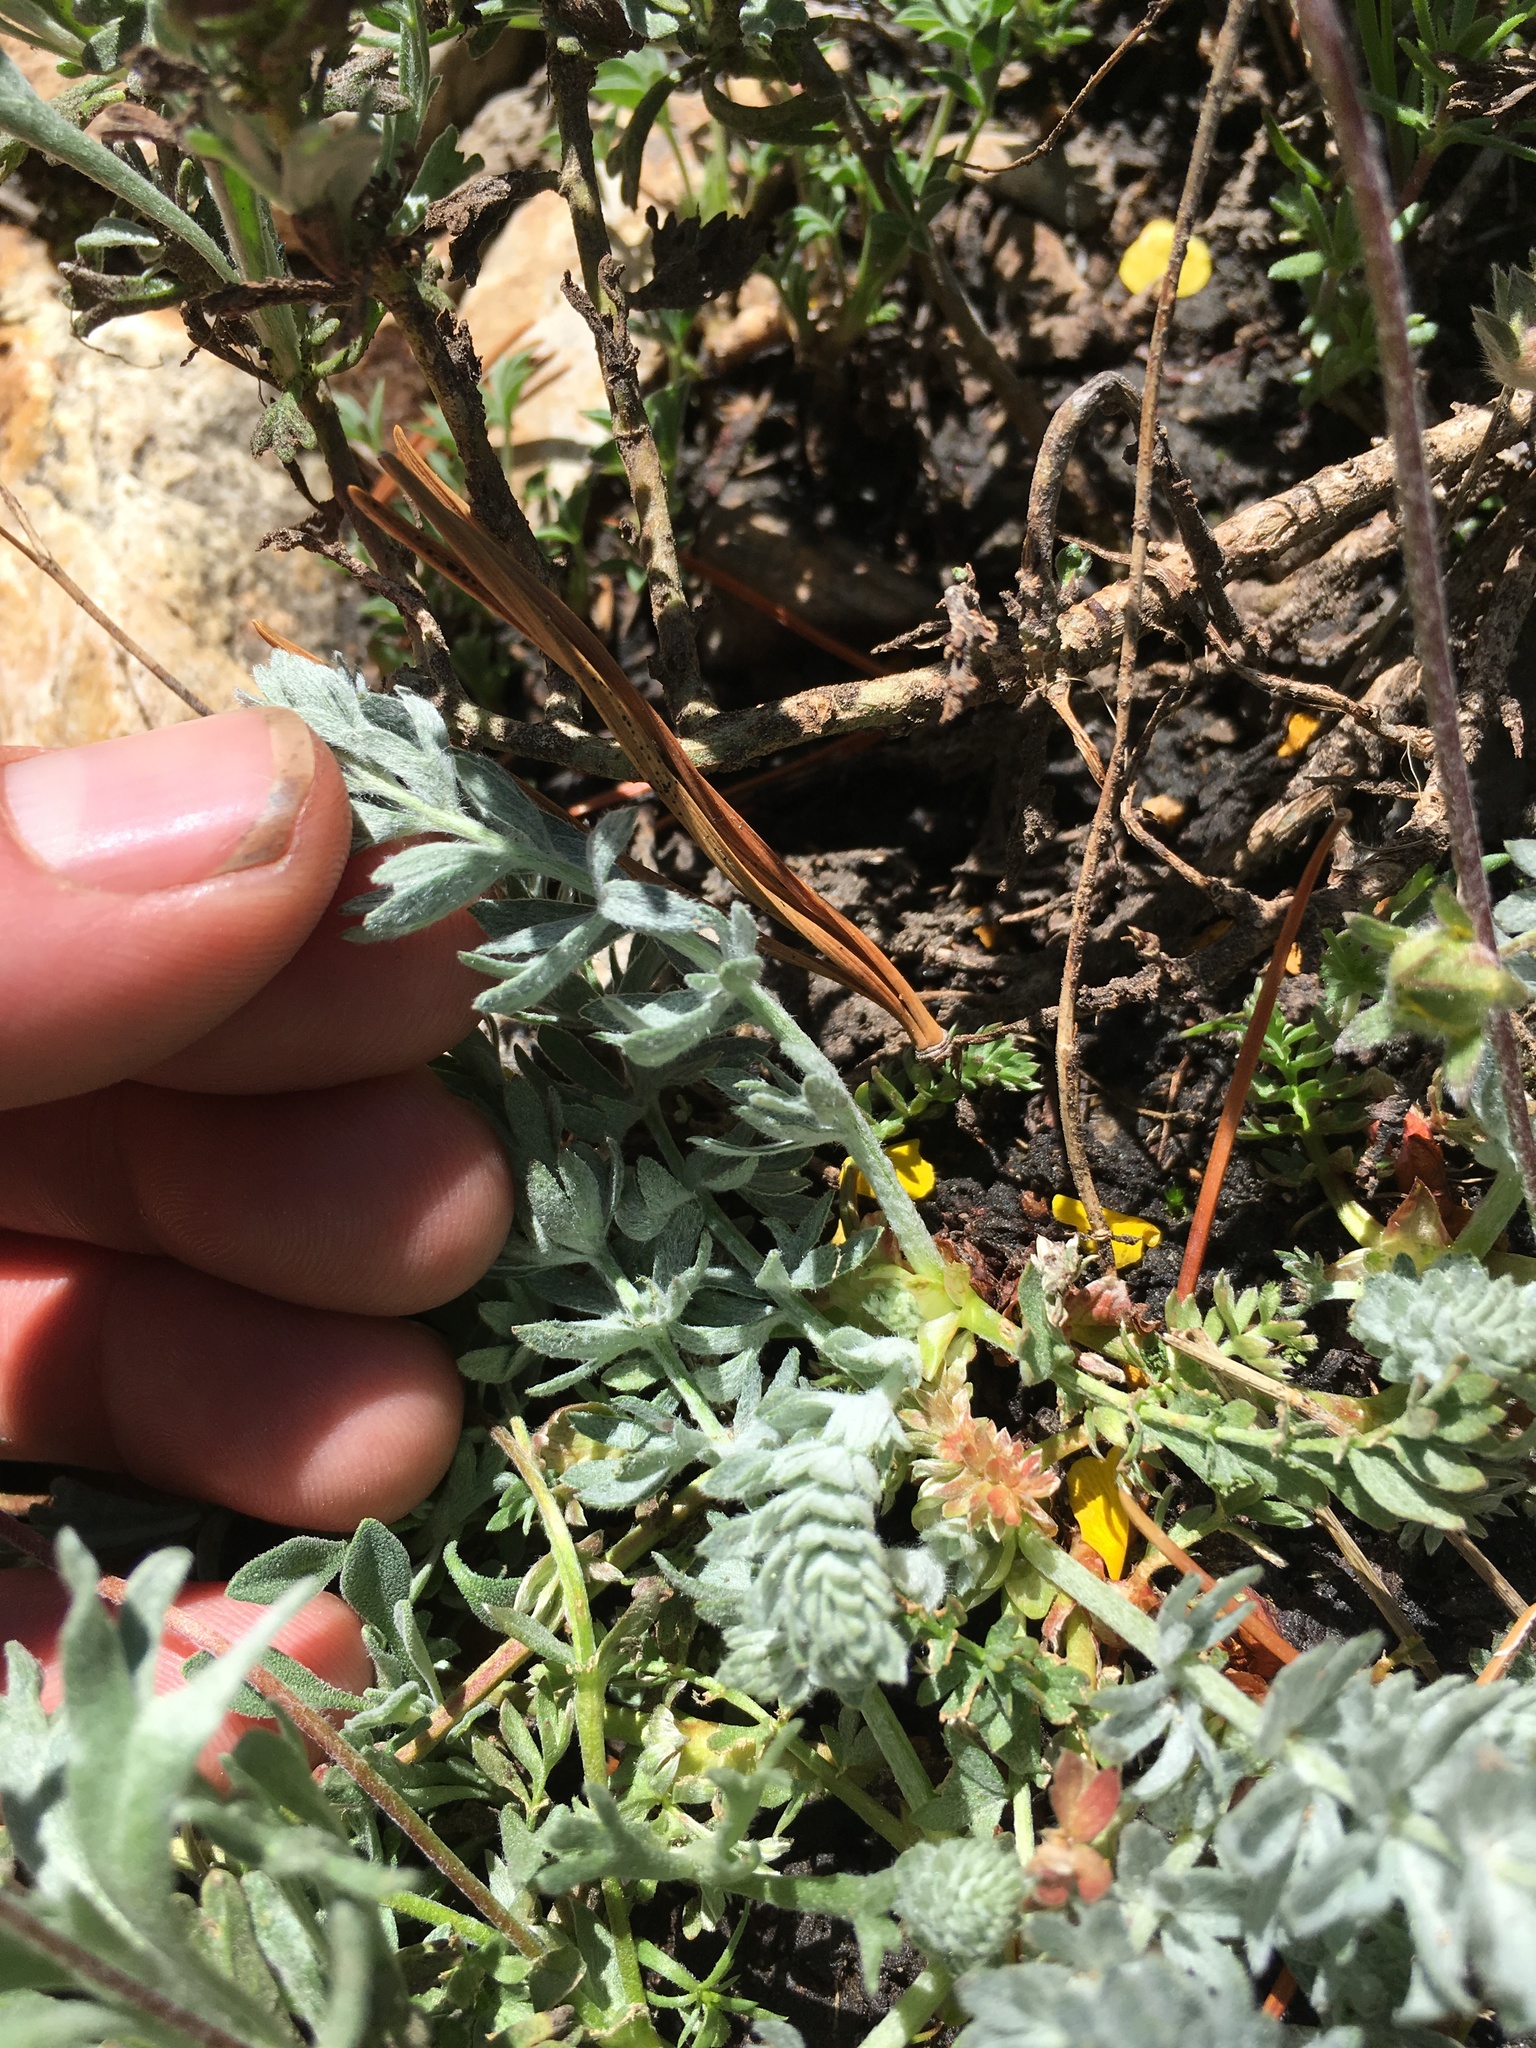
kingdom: Plantae
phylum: Tracheophyta
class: Magnoliopsida
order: Rosales
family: Rosaceae
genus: Potentilla
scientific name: Potentilla breweri
